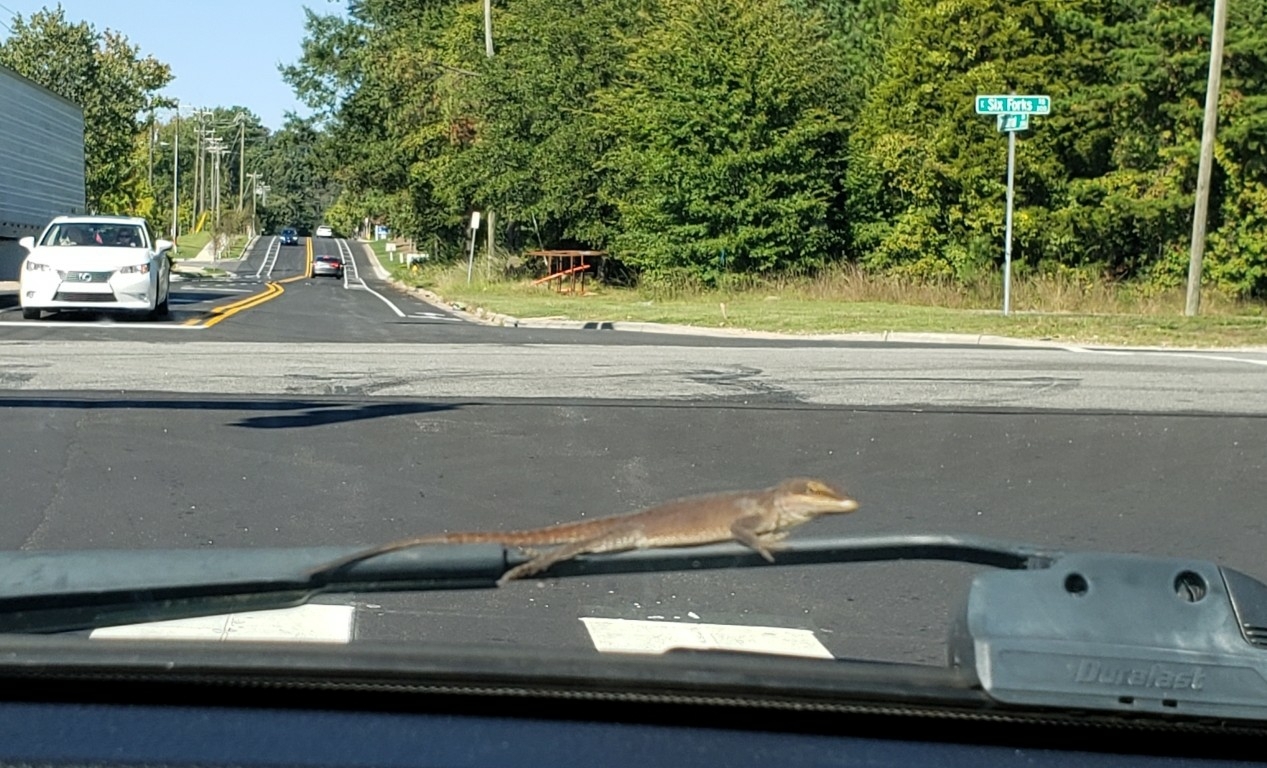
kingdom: Animalia
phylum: Chordata
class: Squamata
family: Dactyloidae
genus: Anolis
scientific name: Anolis carolinensis
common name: Green anole
